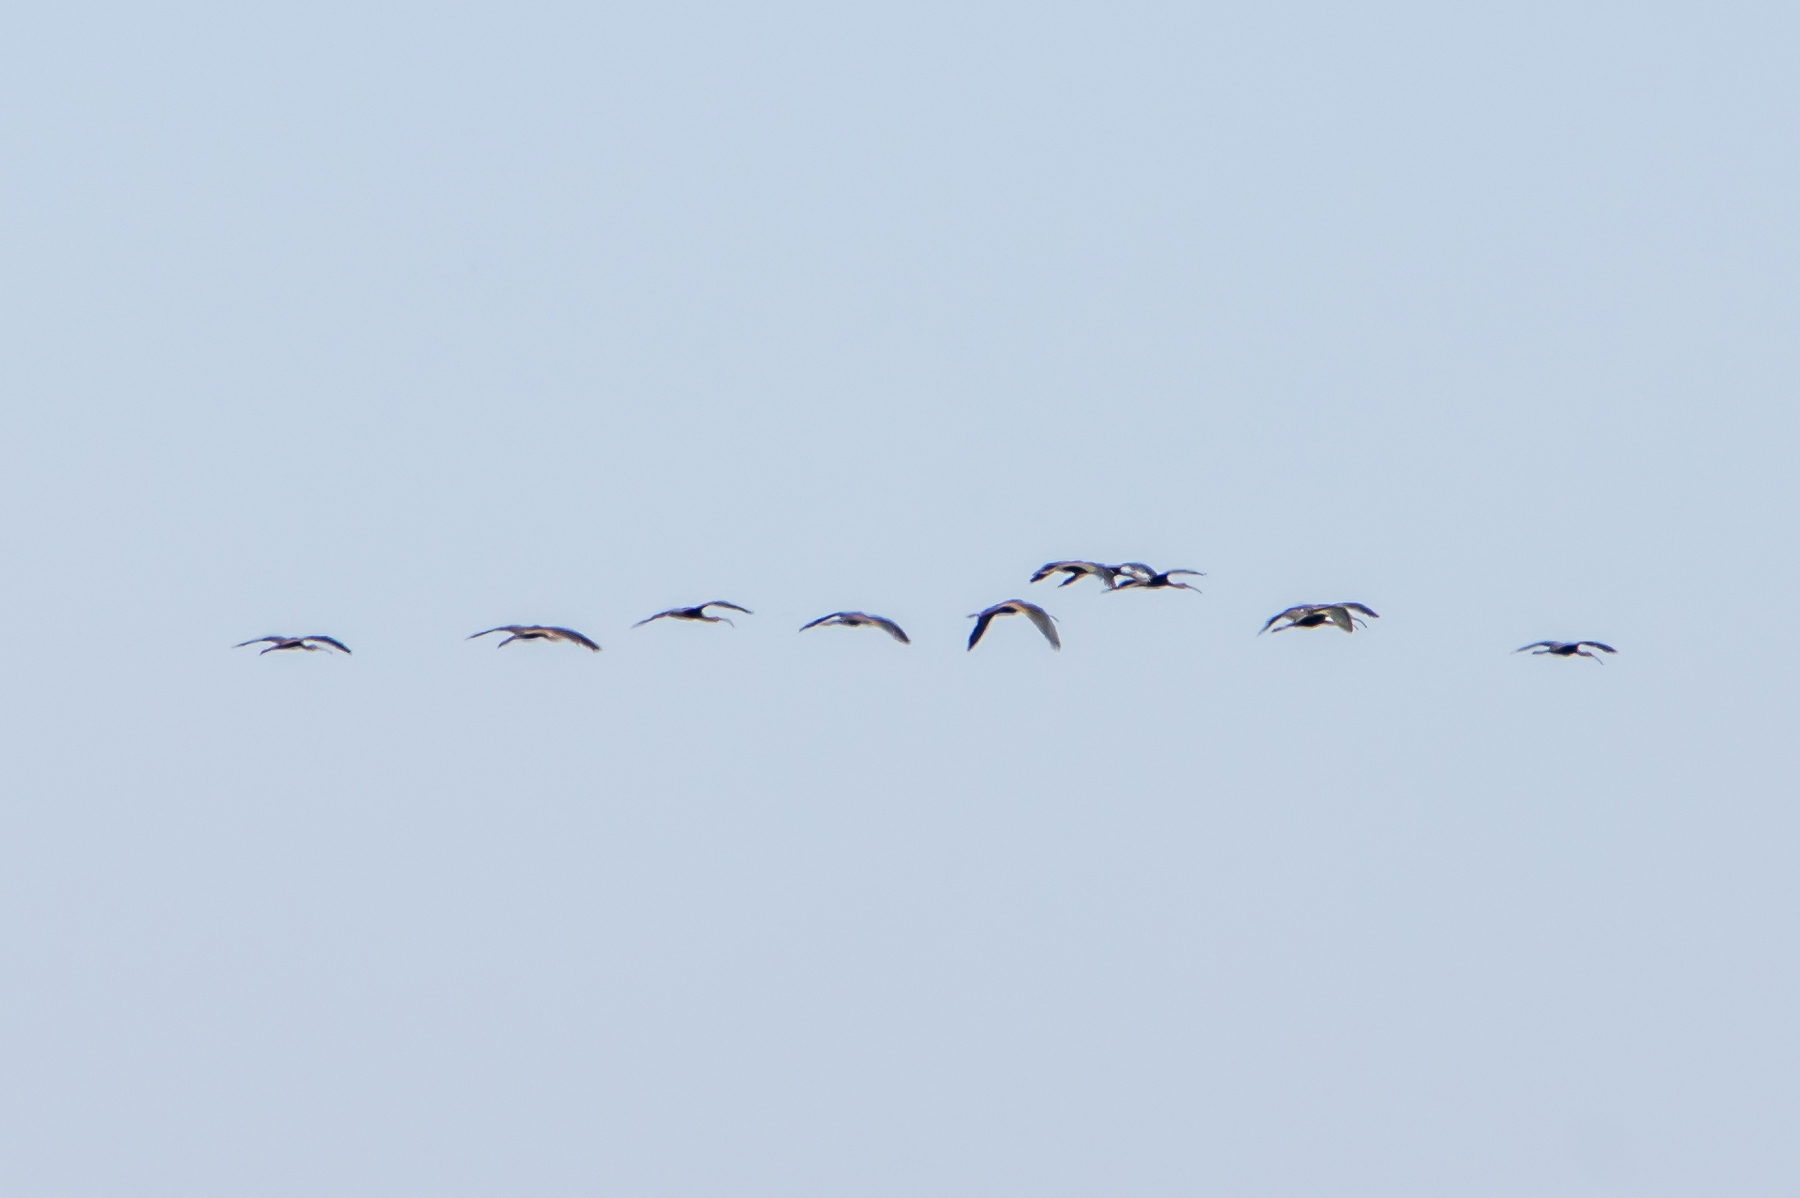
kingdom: Animalia
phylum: Chordata
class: Aves
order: Pelecaniformes
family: Threskiornithidae
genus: Plegadis
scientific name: Plegadis chihi
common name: White-faced ibis
